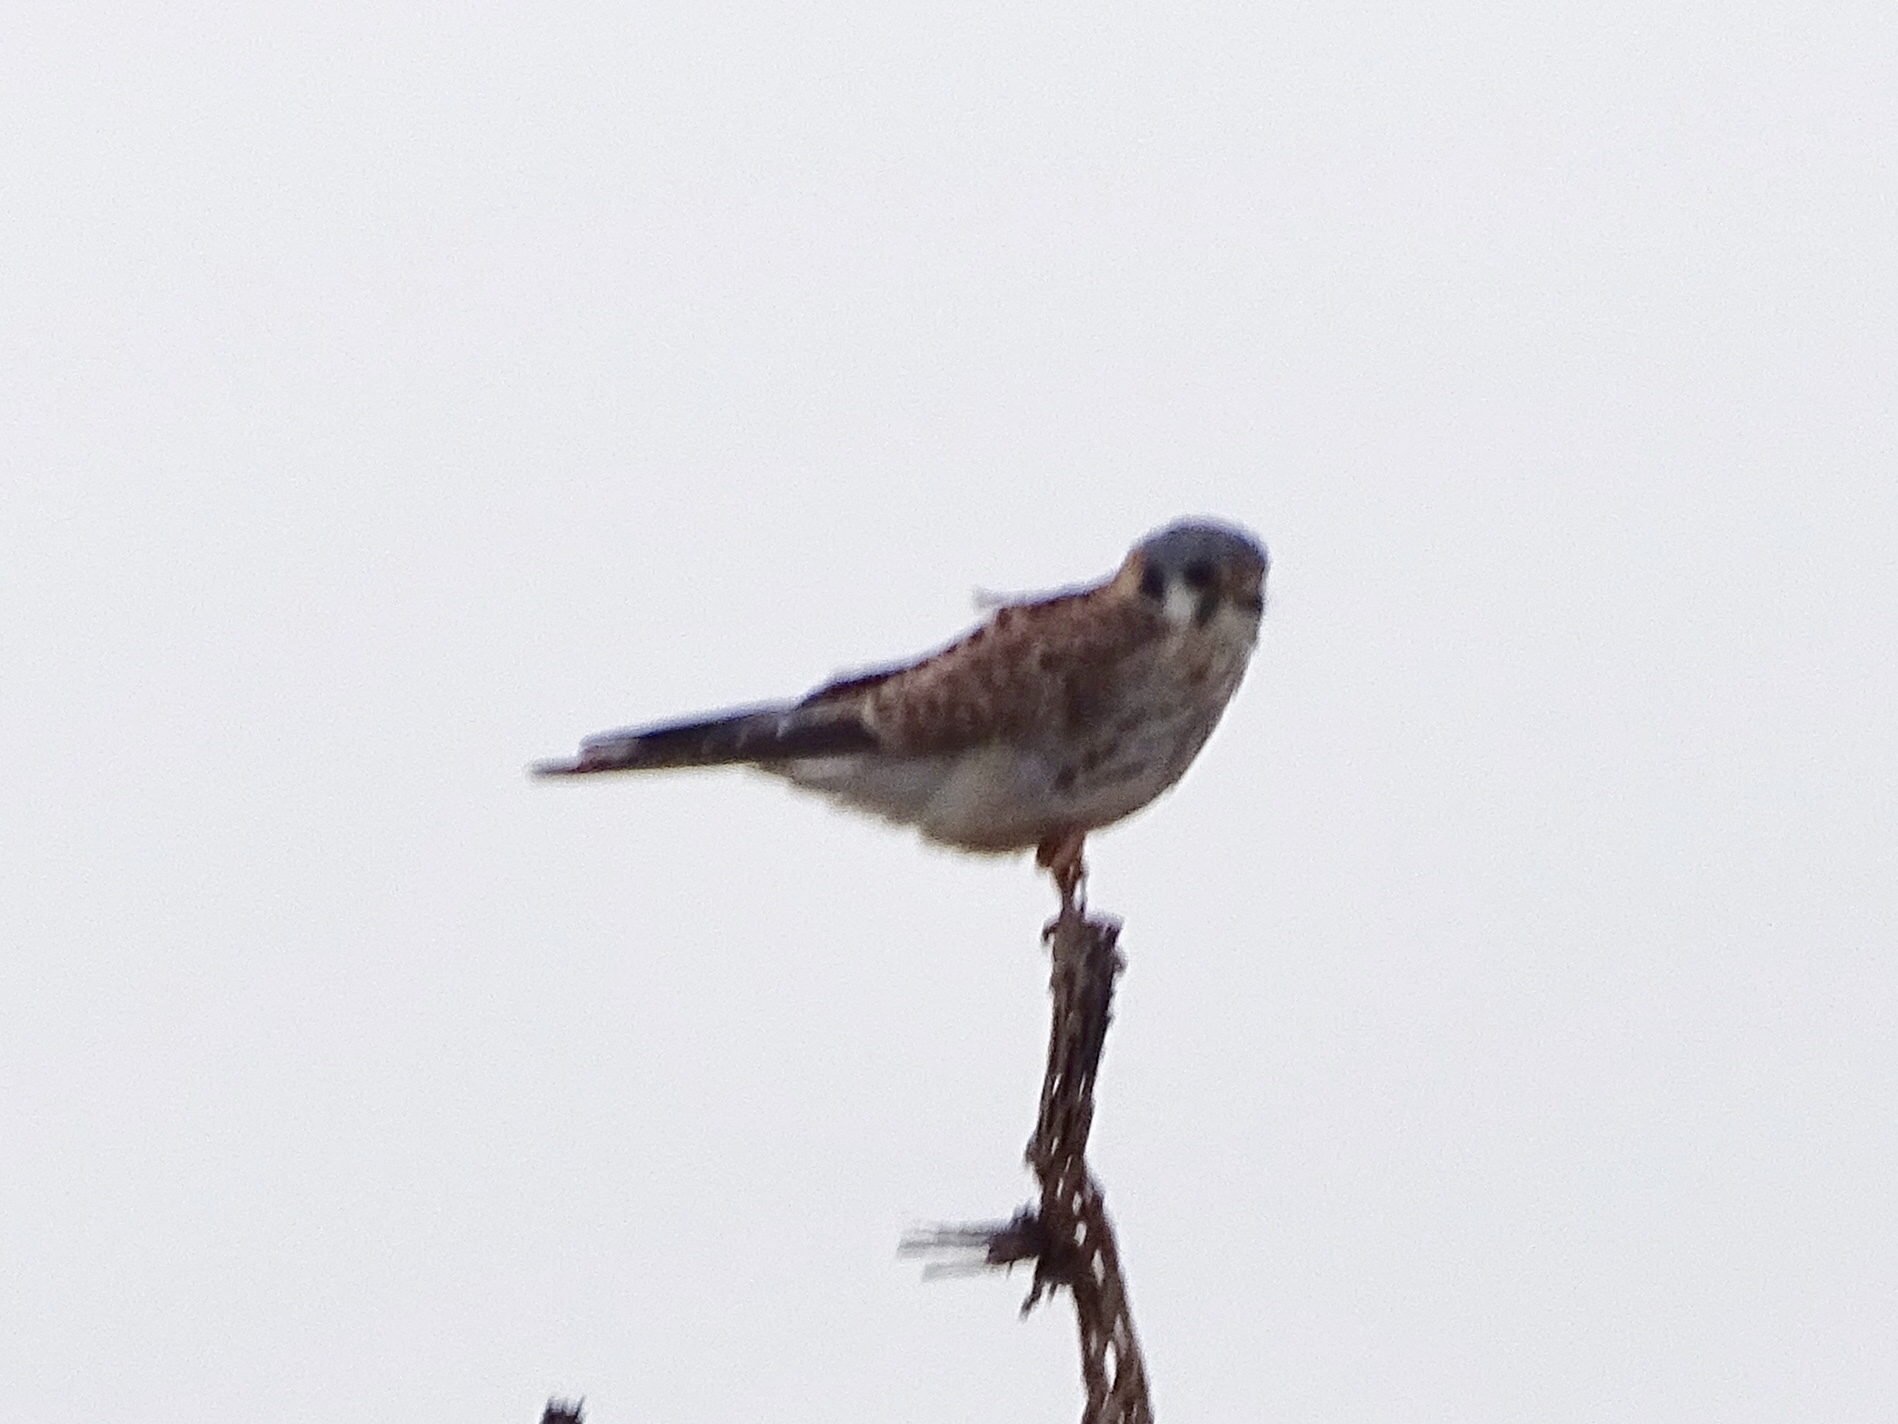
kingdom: Animalia
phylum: Chordata
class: Aves
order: Falconiformes
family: Falconidae
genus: Falco
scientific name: Falco sparverius
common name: American kestrel
